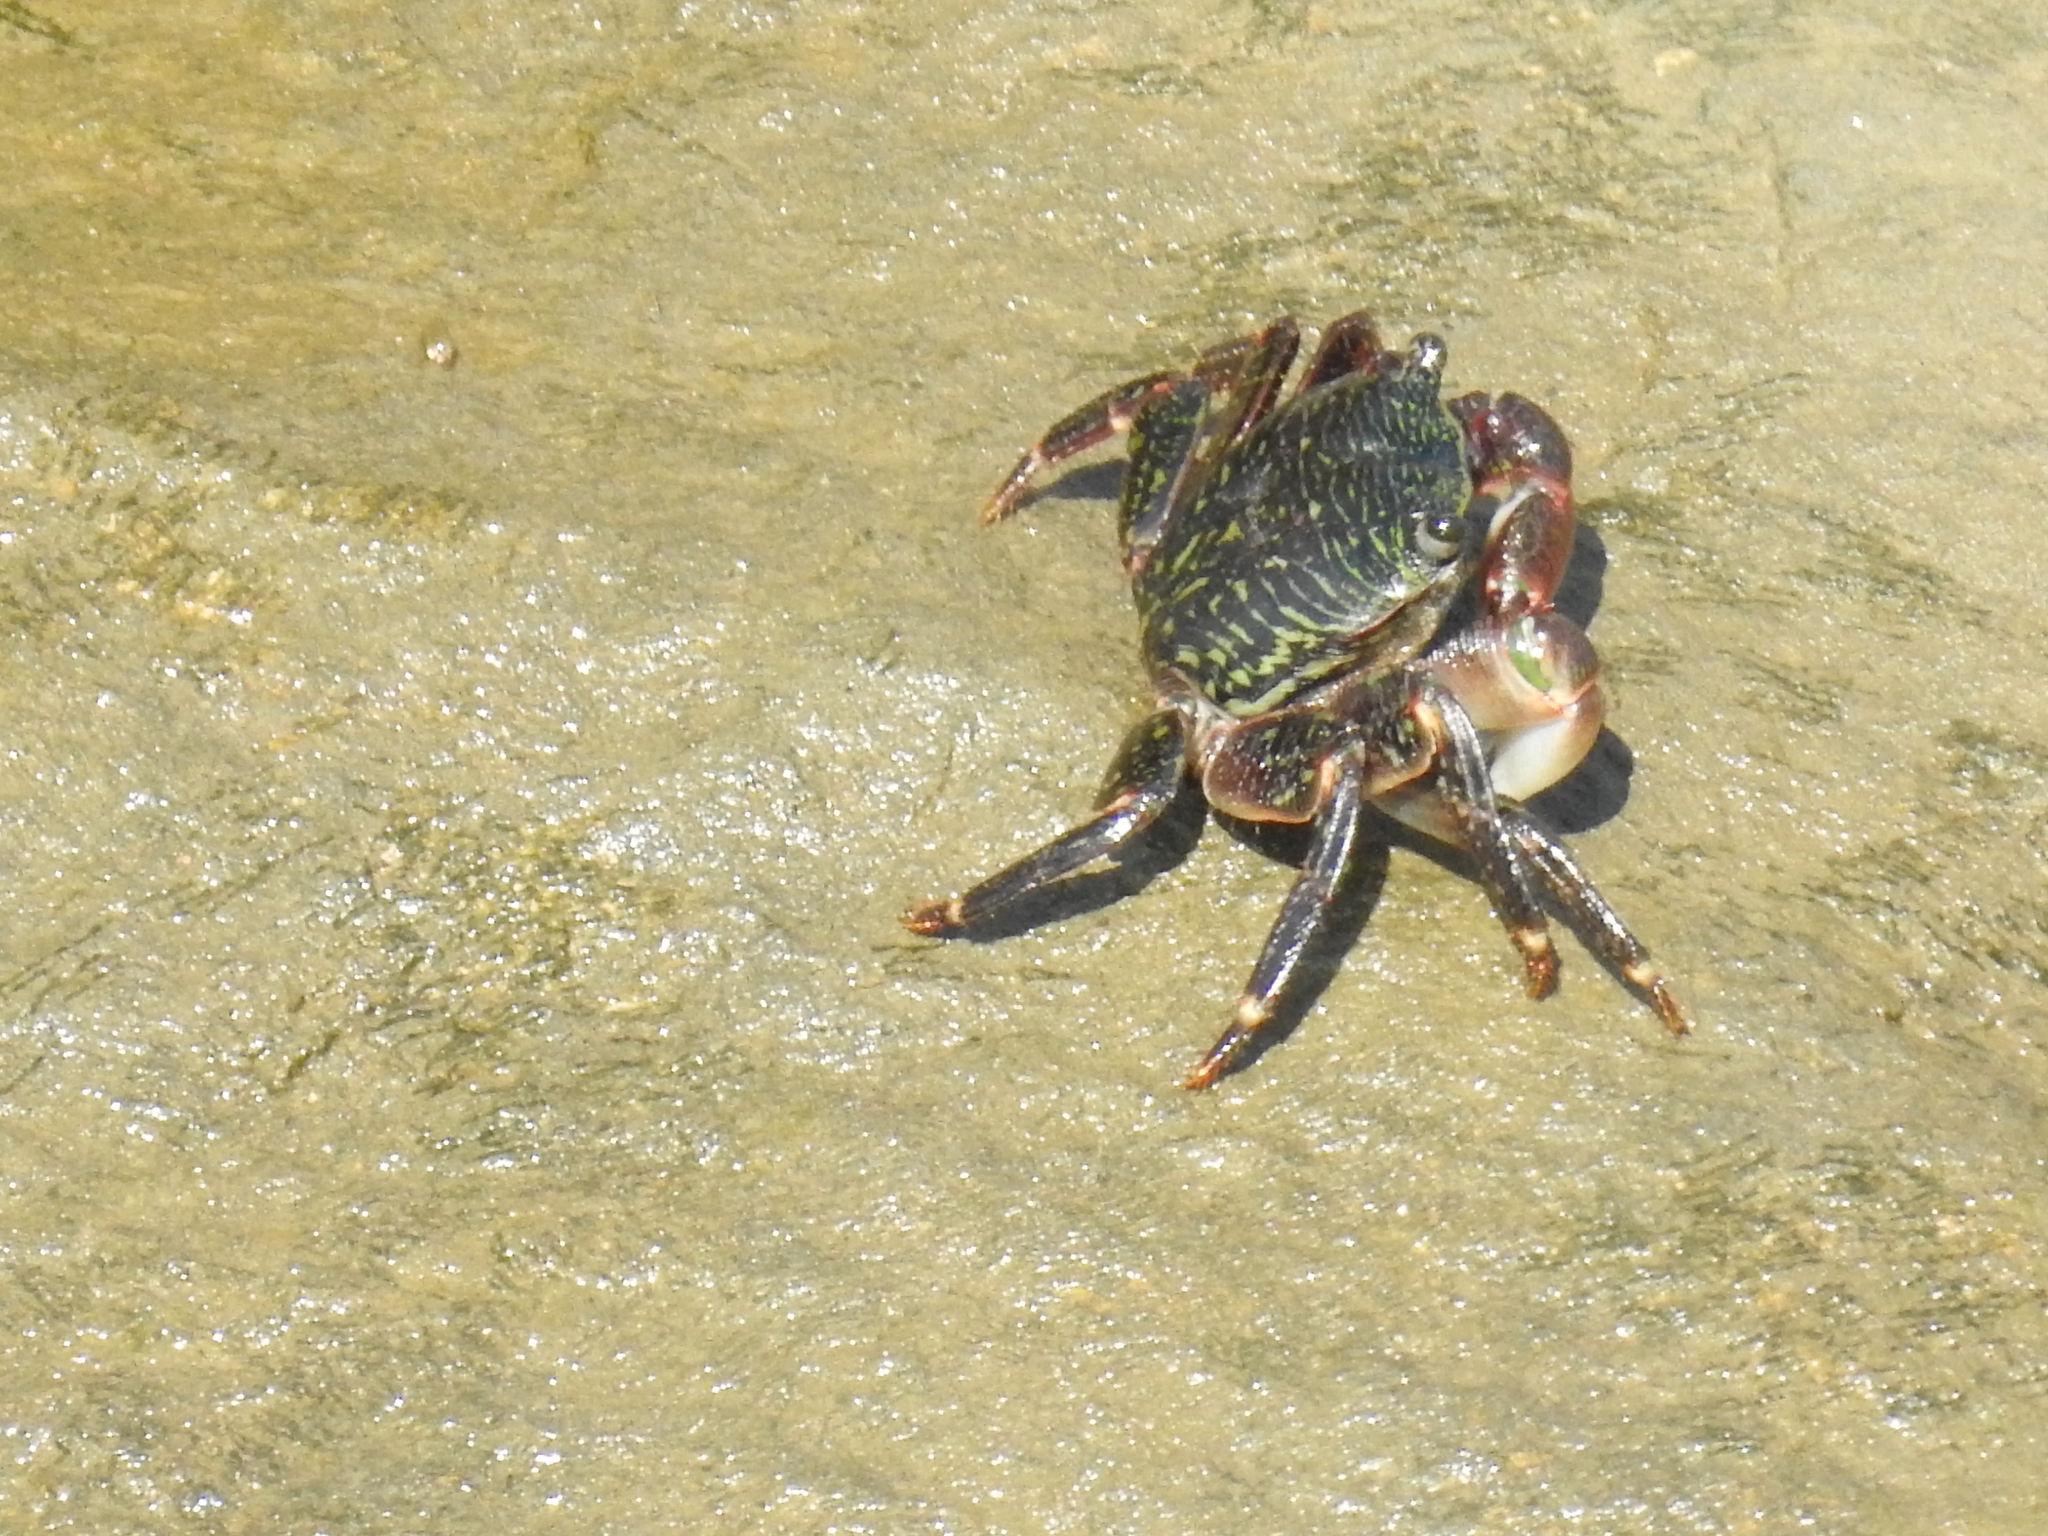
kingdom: Animalia
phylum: Arthropoda
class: Malacostraca
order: Decapoda
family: Grapsidae
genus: Pachygrapsus
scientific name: Pachygrapsus crassipes
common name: Striped shore crab
